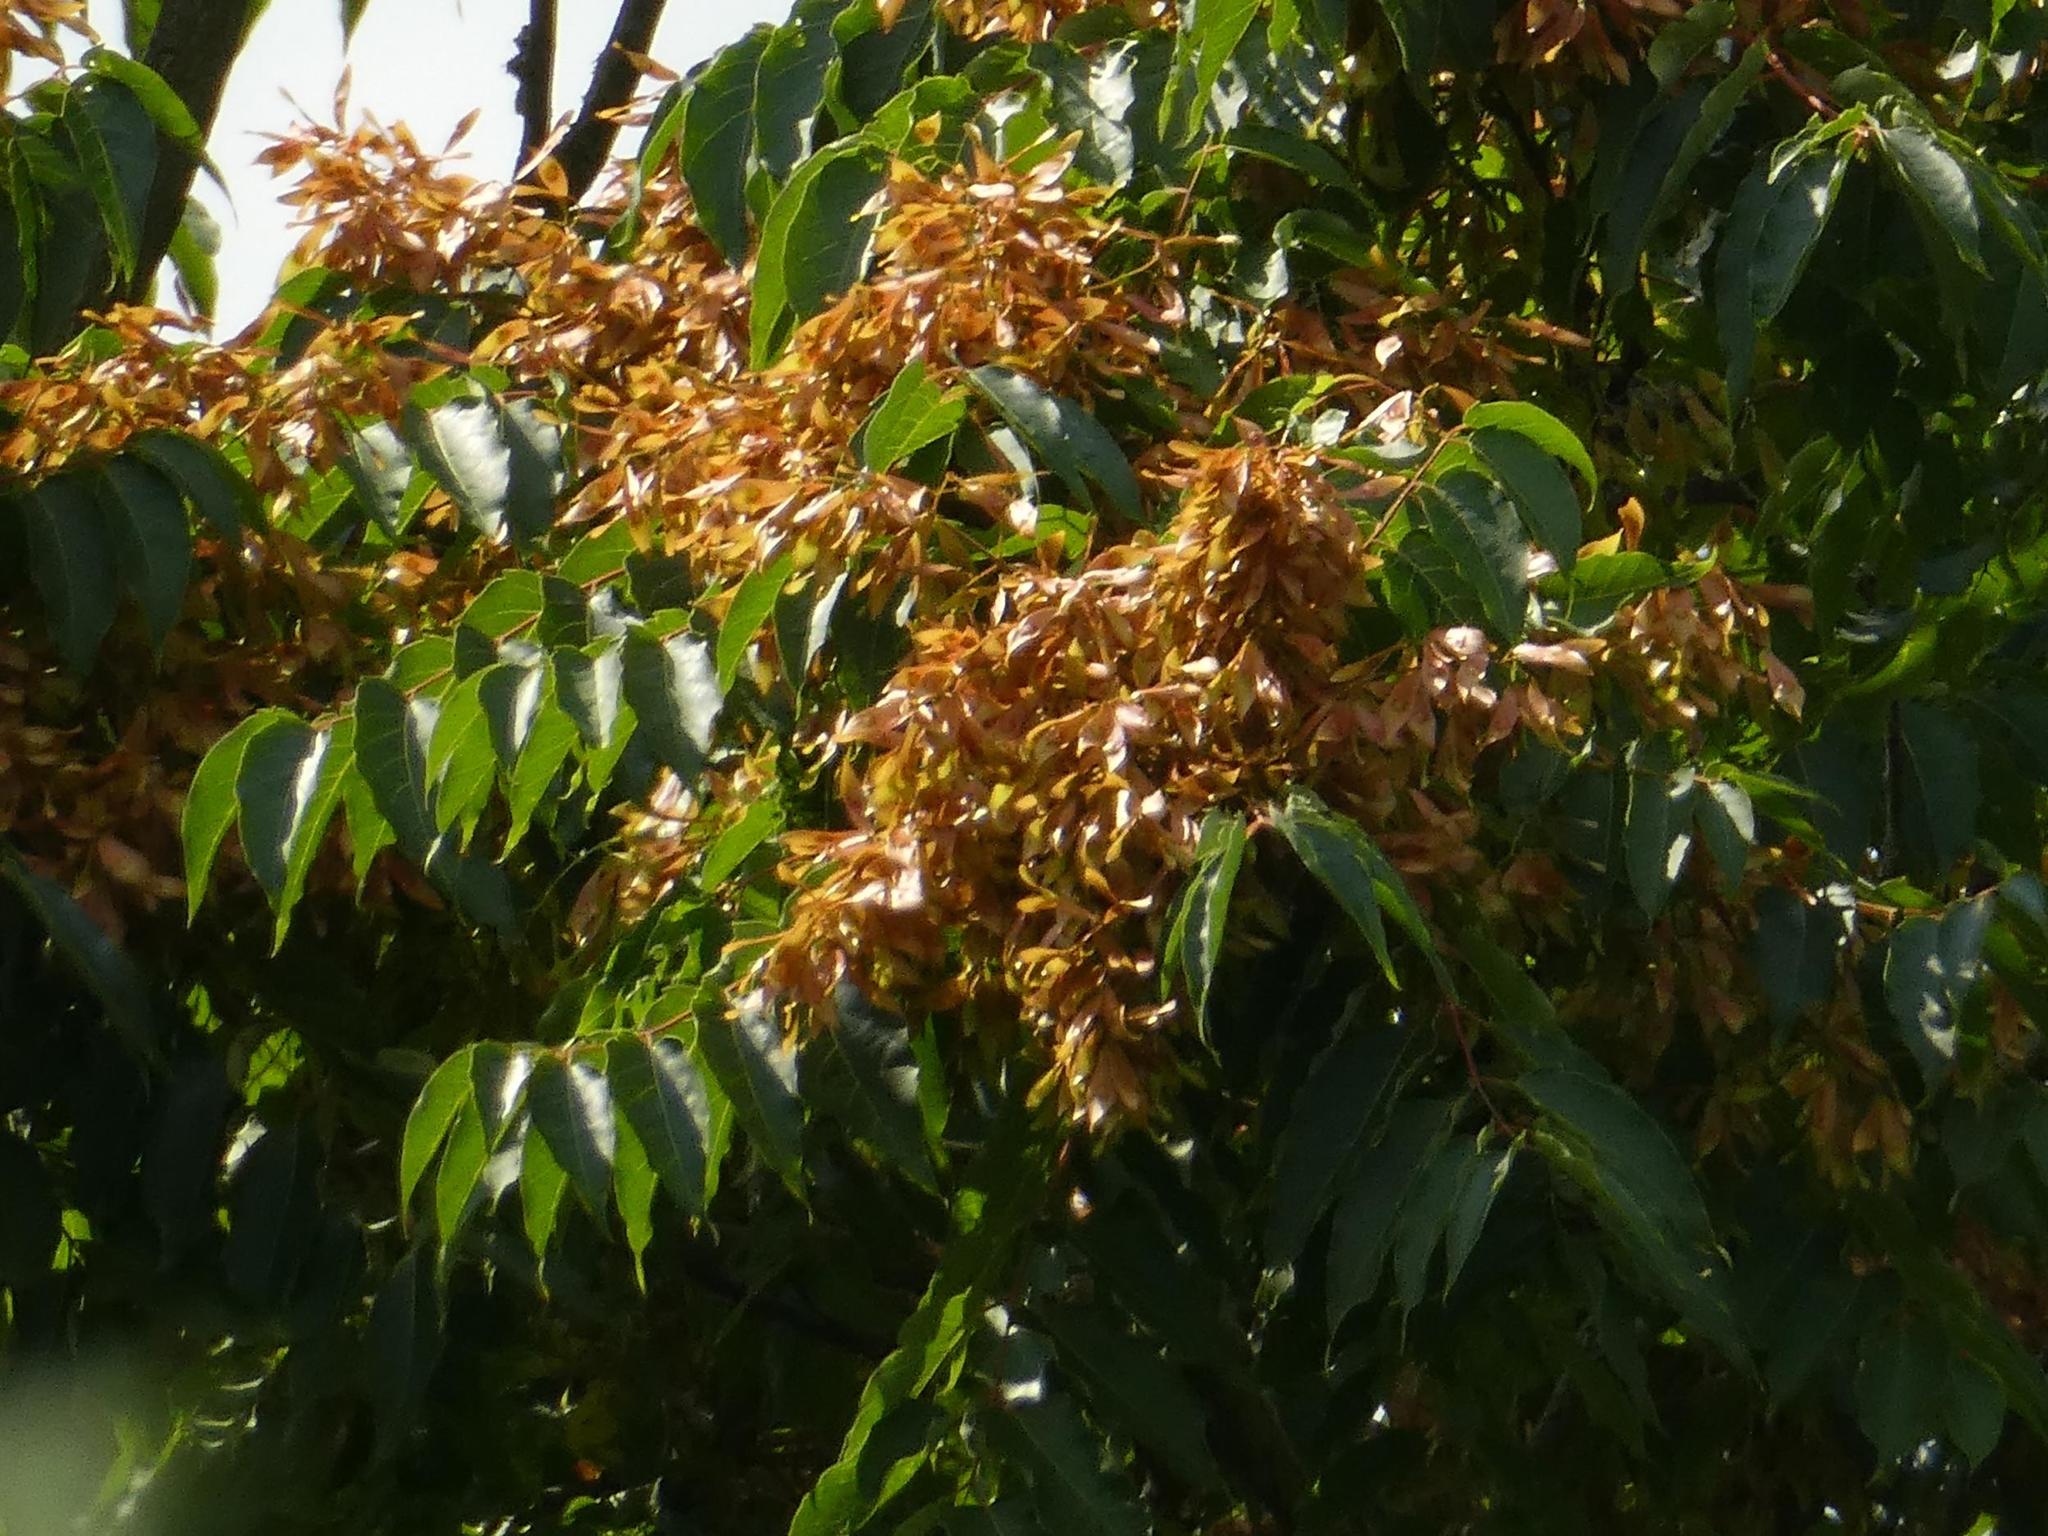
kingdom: Plantae
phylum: Tracheophyta
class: Magnoliopsida
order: Sapindales
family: Simaroubaceae
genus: Ailanthus
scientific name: Ailanthus altissima
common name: Tree-of-heaven
